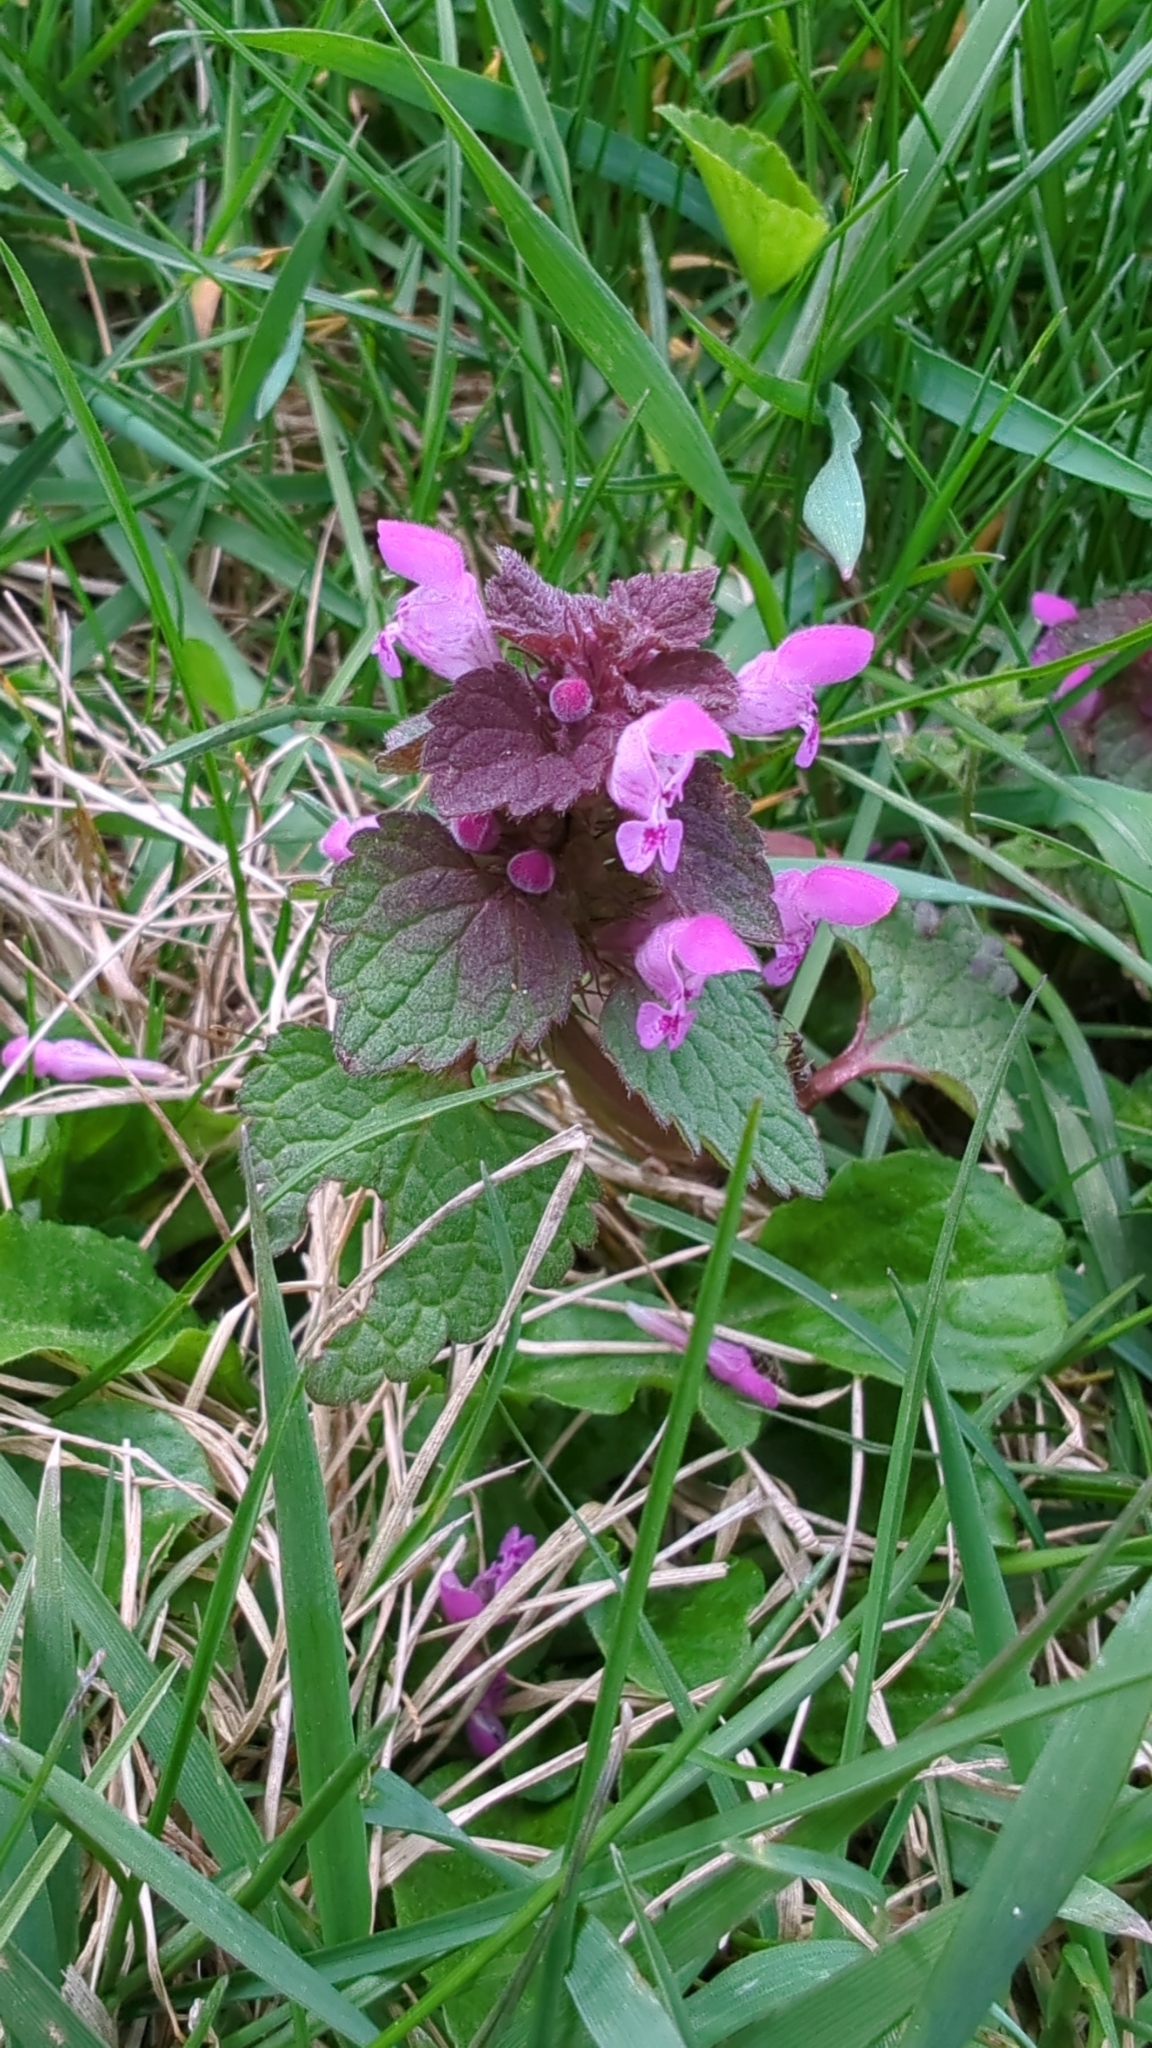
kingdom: Plantae
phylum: Tracheophyta
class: Magnoliopsida
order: Lamiales
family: Lamiaceae
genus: Lamium
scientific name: Lamium purpureum
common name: Red dead-nettle
